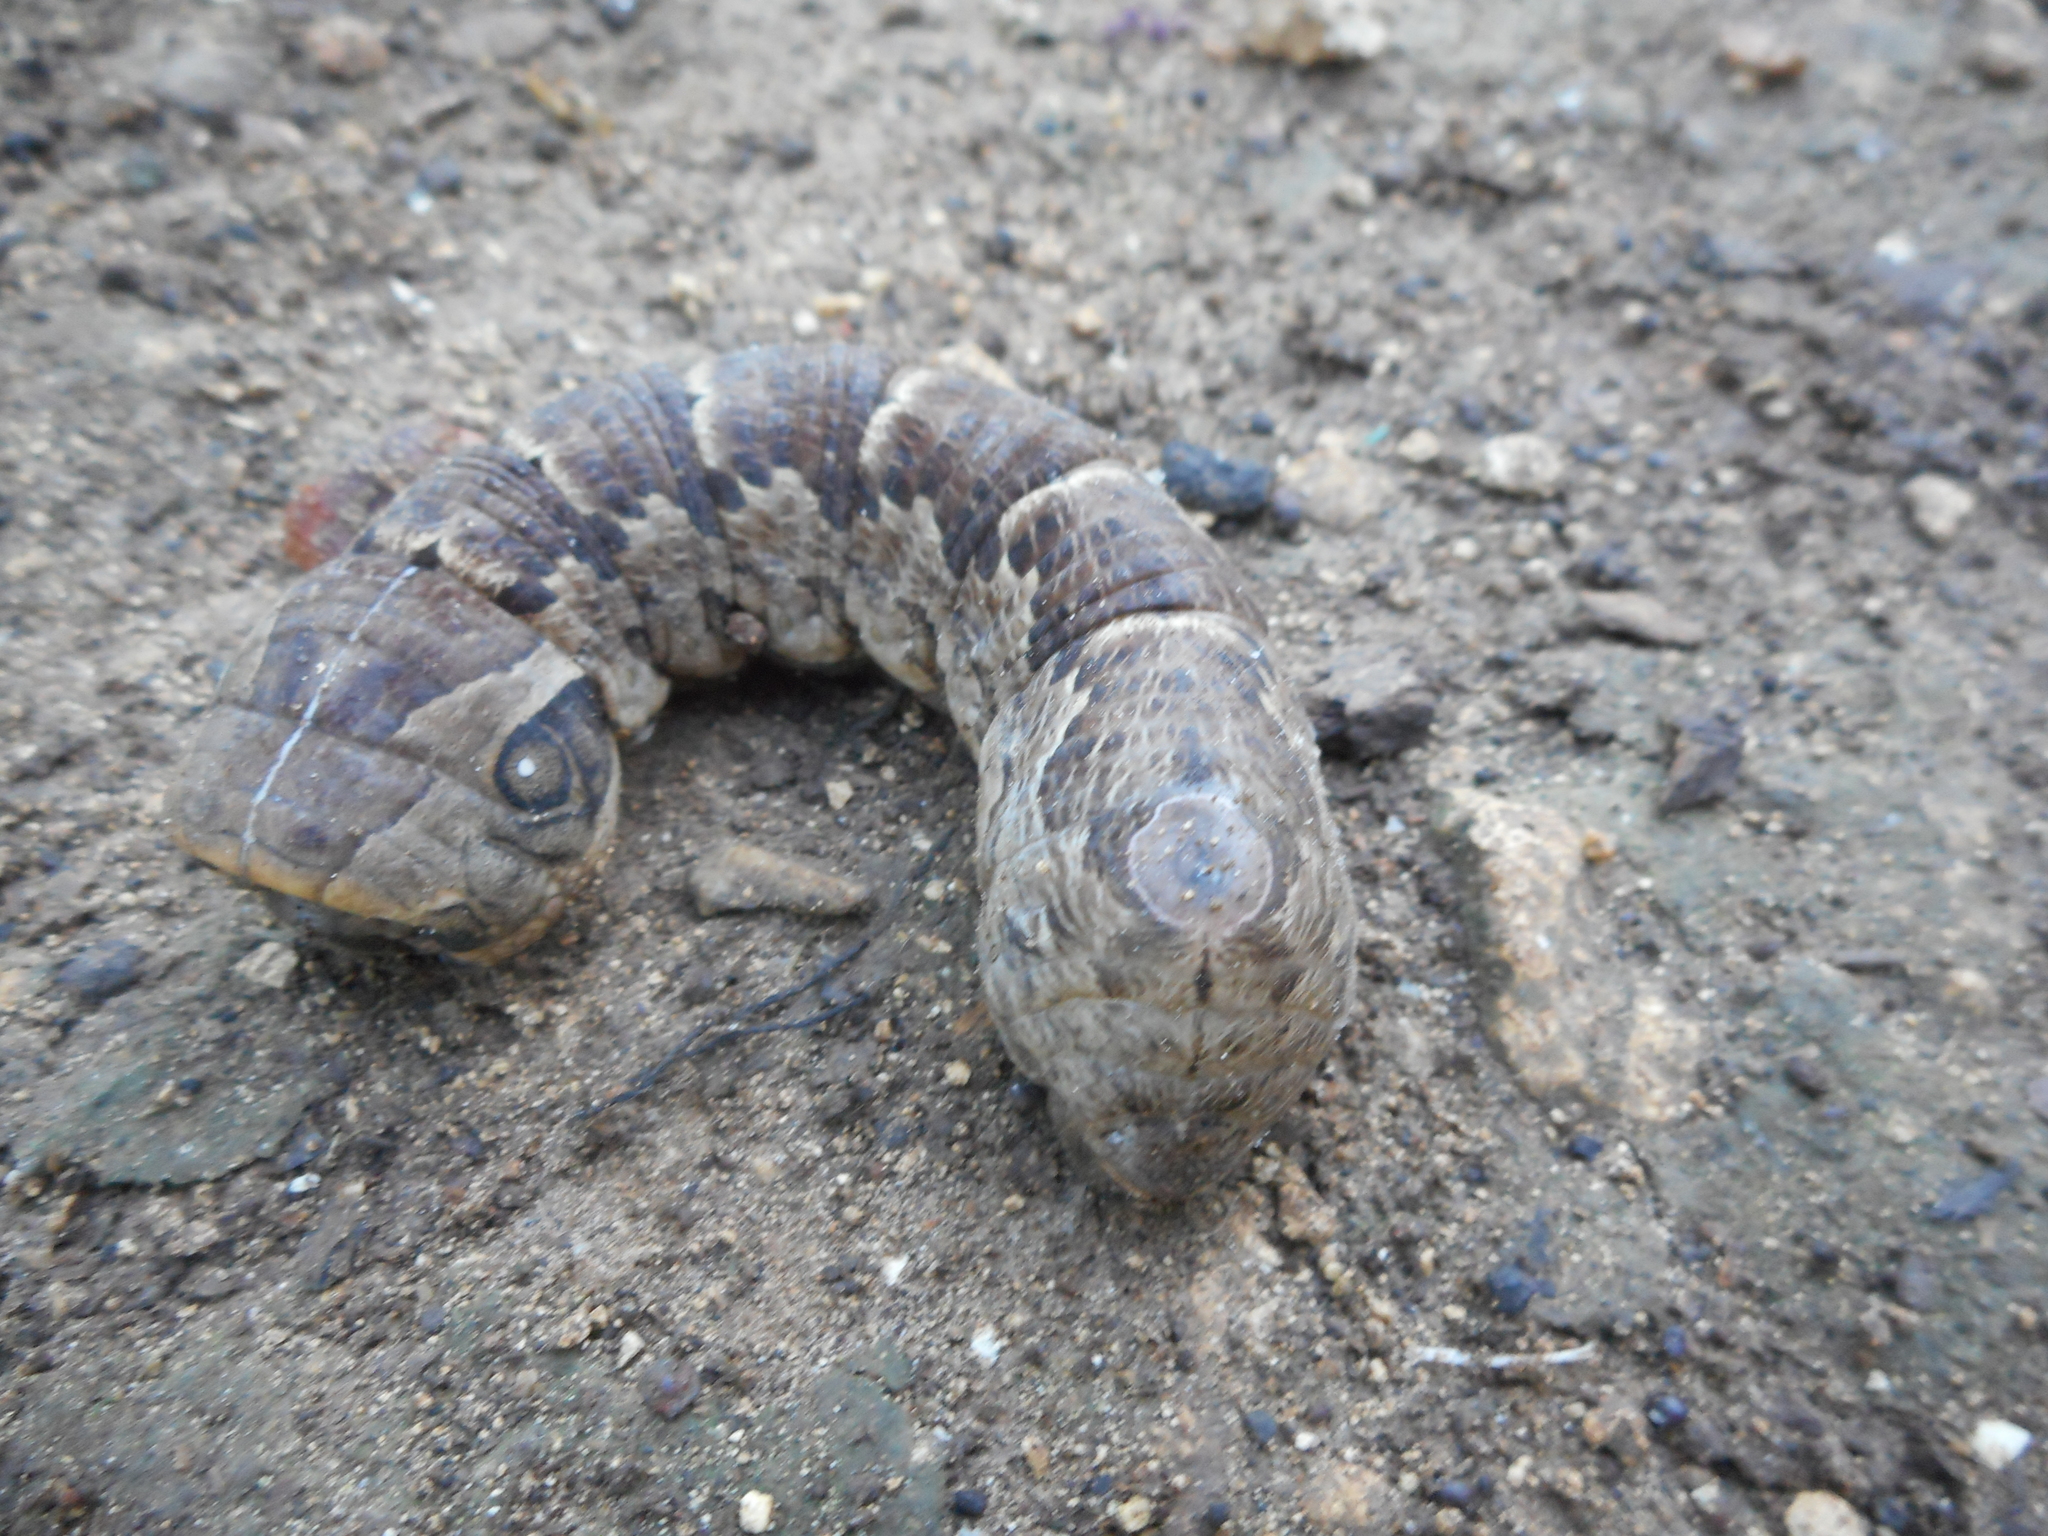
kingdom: Animalia
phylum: Arthropoda
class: Insecta
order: Lepidoptera
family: Sphingidae
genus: Eumorpha
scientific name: Eumorpha labruscae
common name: Gaudy sphinx
